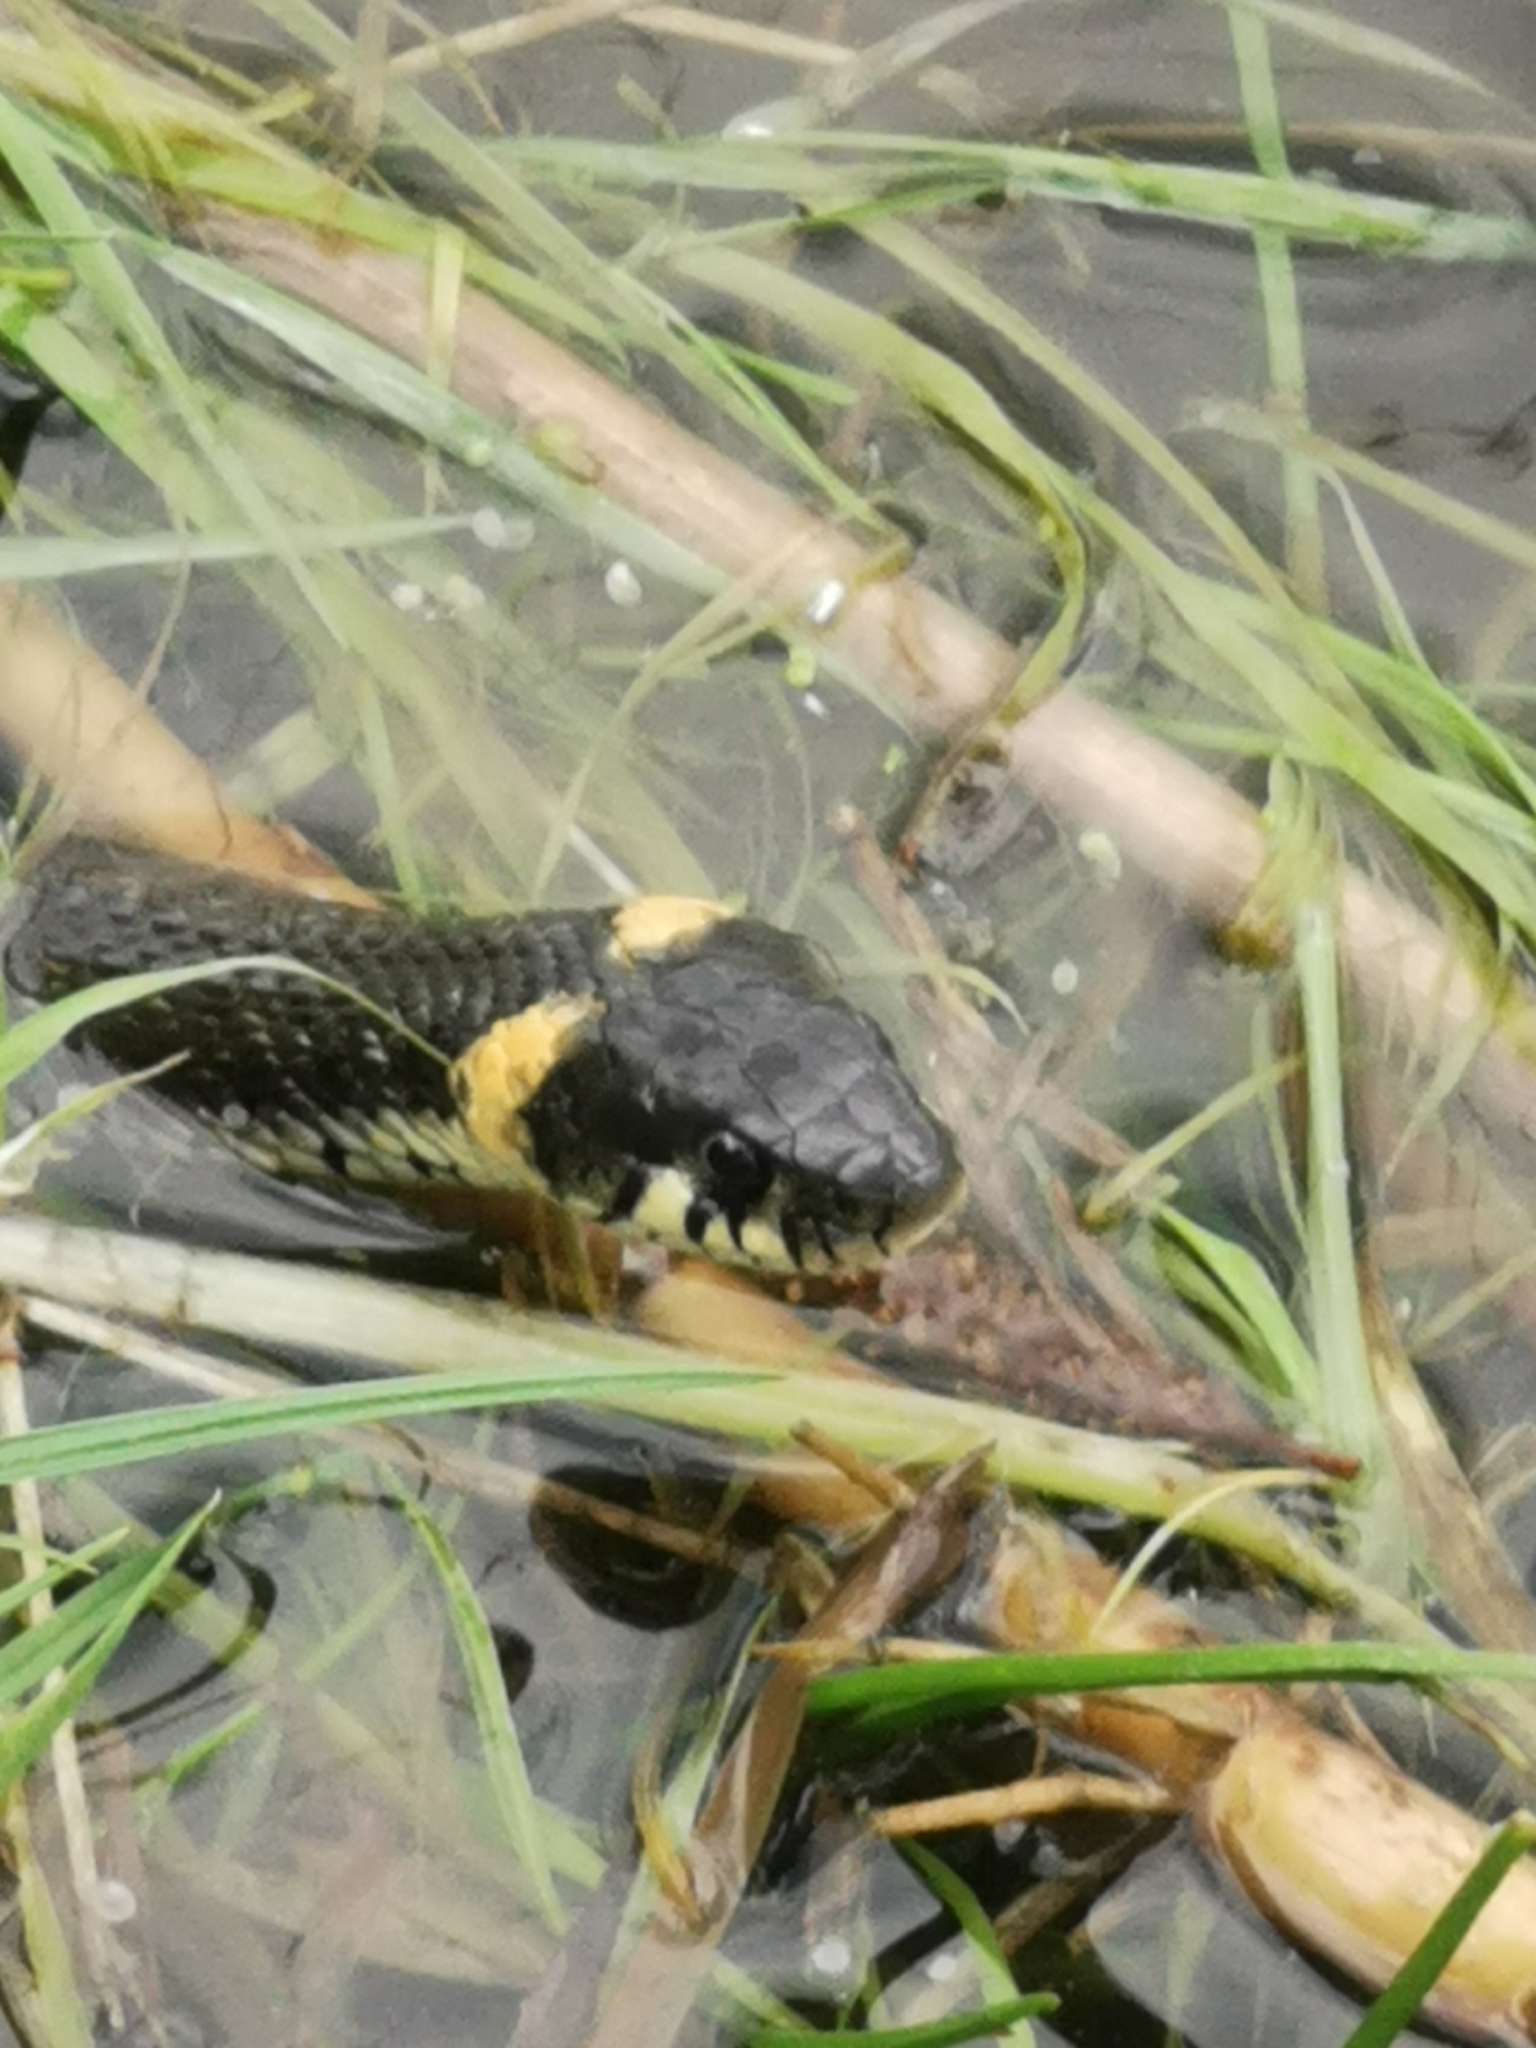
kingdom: Animalia
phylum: Chordata
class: Squamata
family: Colubridae
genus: Natrix
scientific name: Natrix natrix
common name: Grass snake
